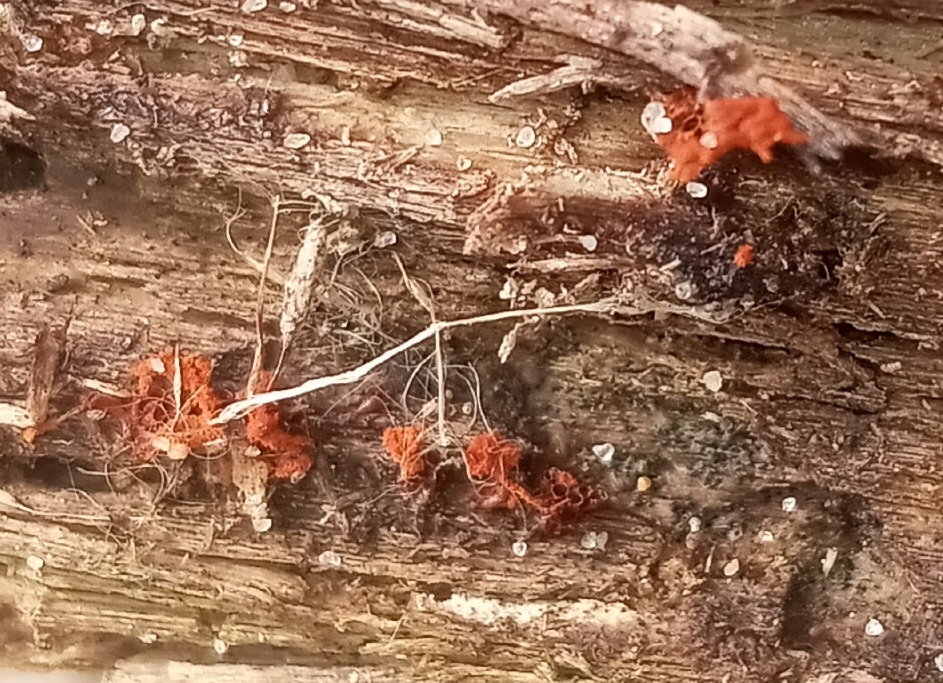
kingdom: Protozoa
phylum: Mycetozoa
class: Myxomycetes
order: Trichiales
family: Trichiaceae
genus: Metatrichia
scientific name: Metatrichia vesparia
